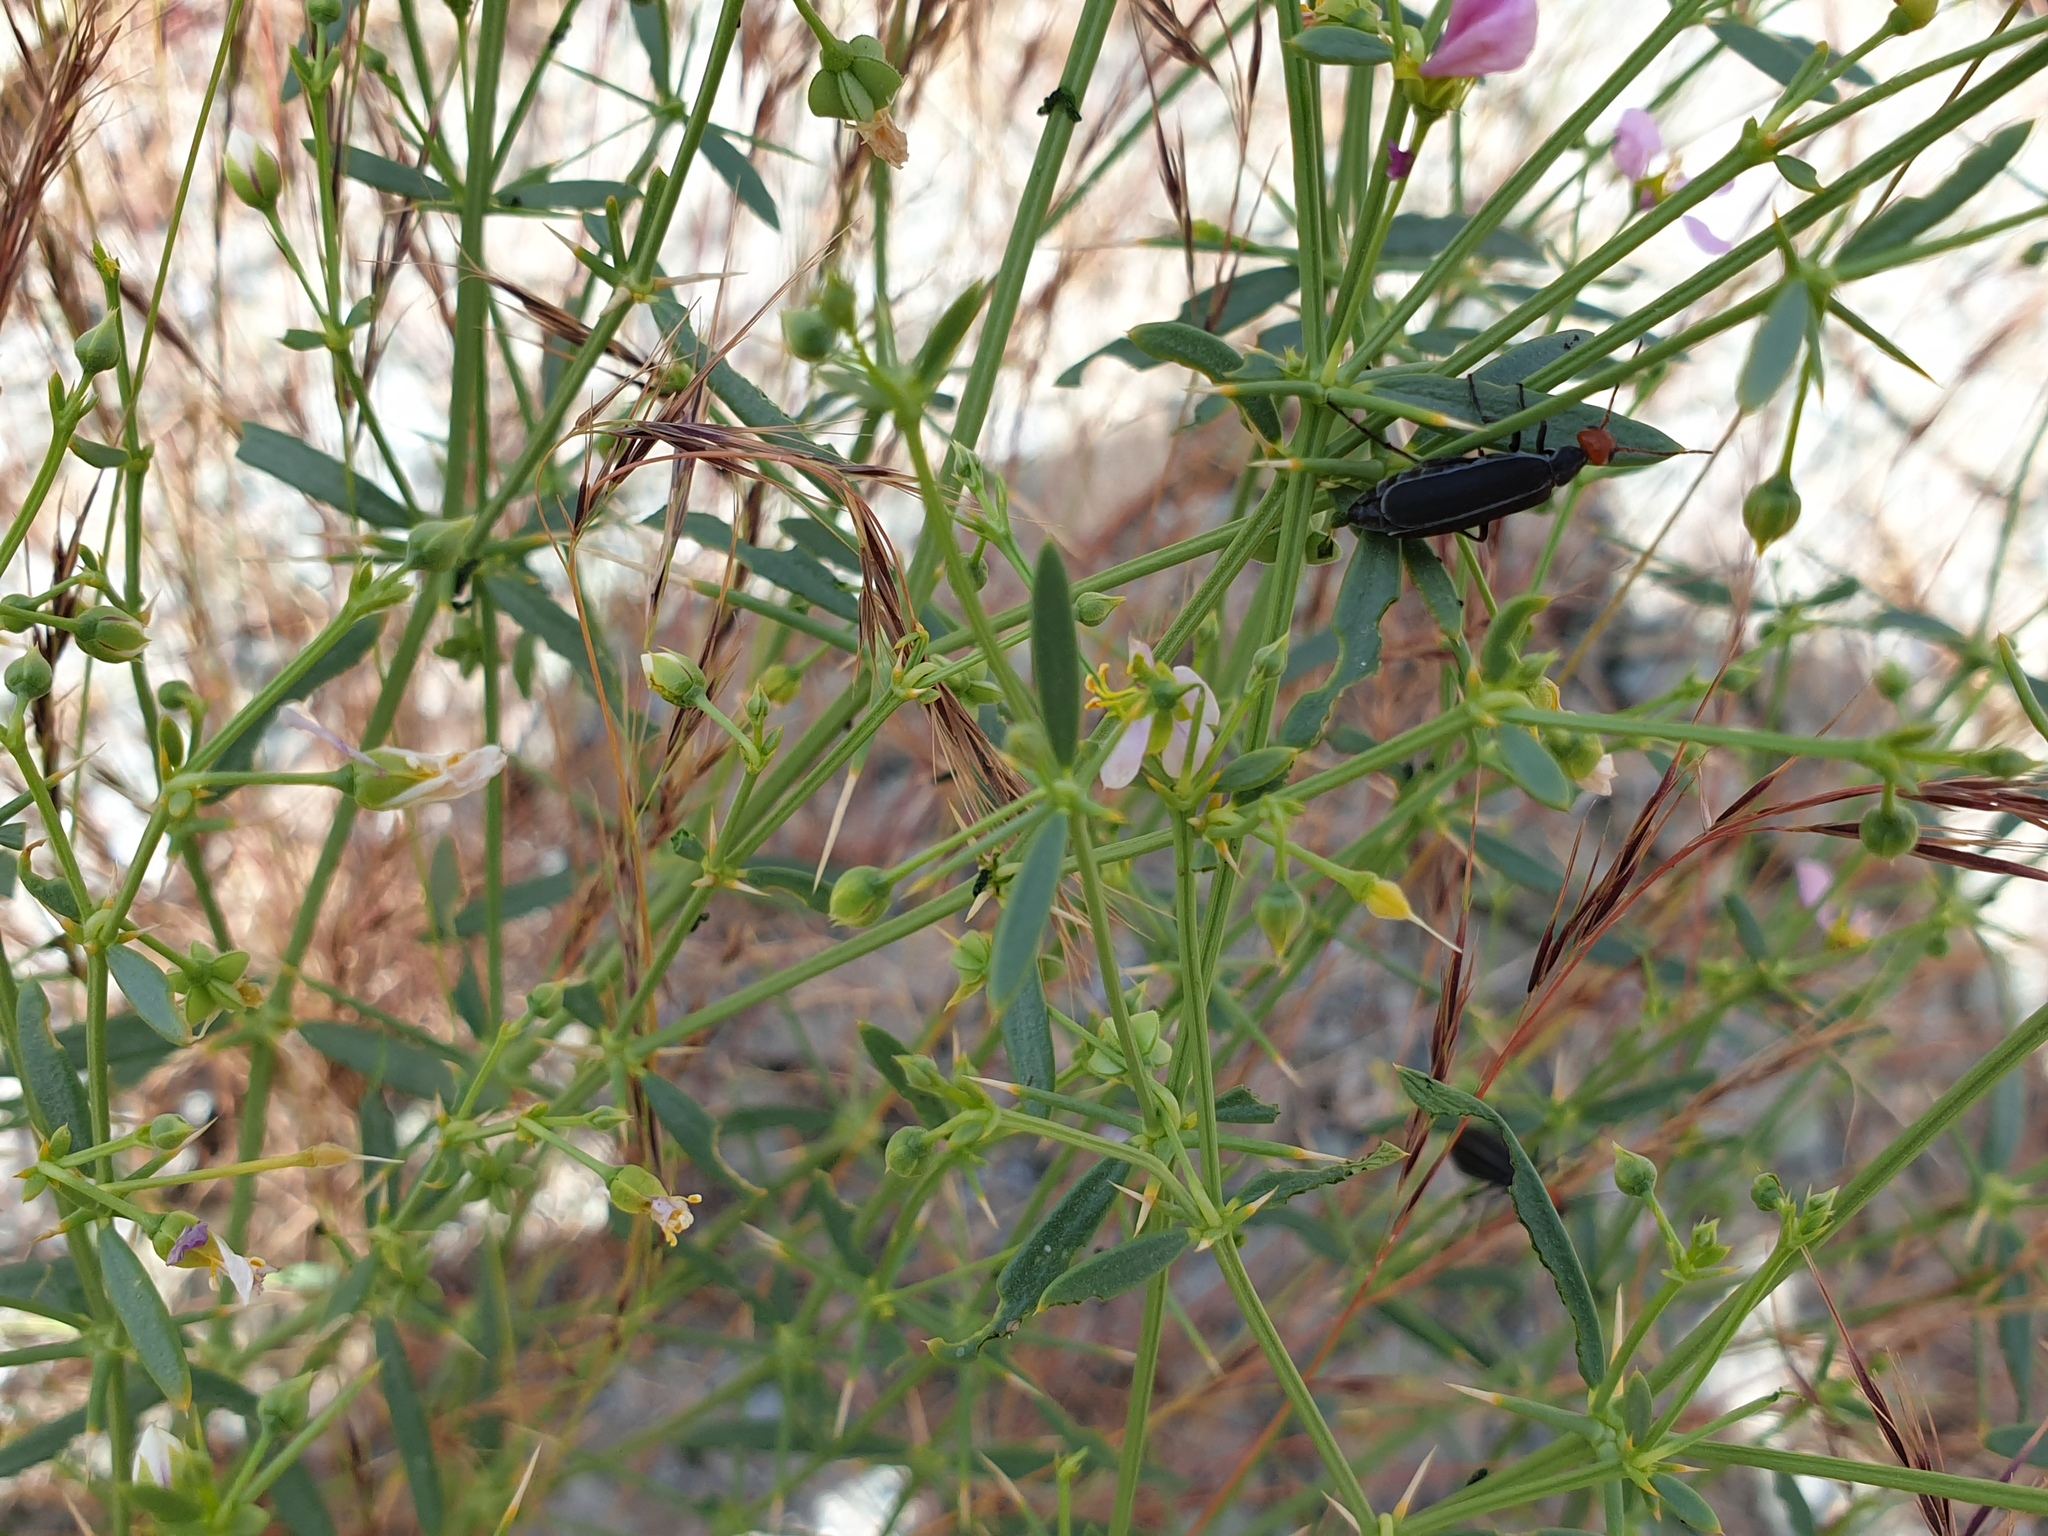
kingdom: Animalia
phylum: Arthropoda
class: Insecta
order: Coleoptera
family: Meloidae
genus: Epicauta
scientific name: Epicauta
